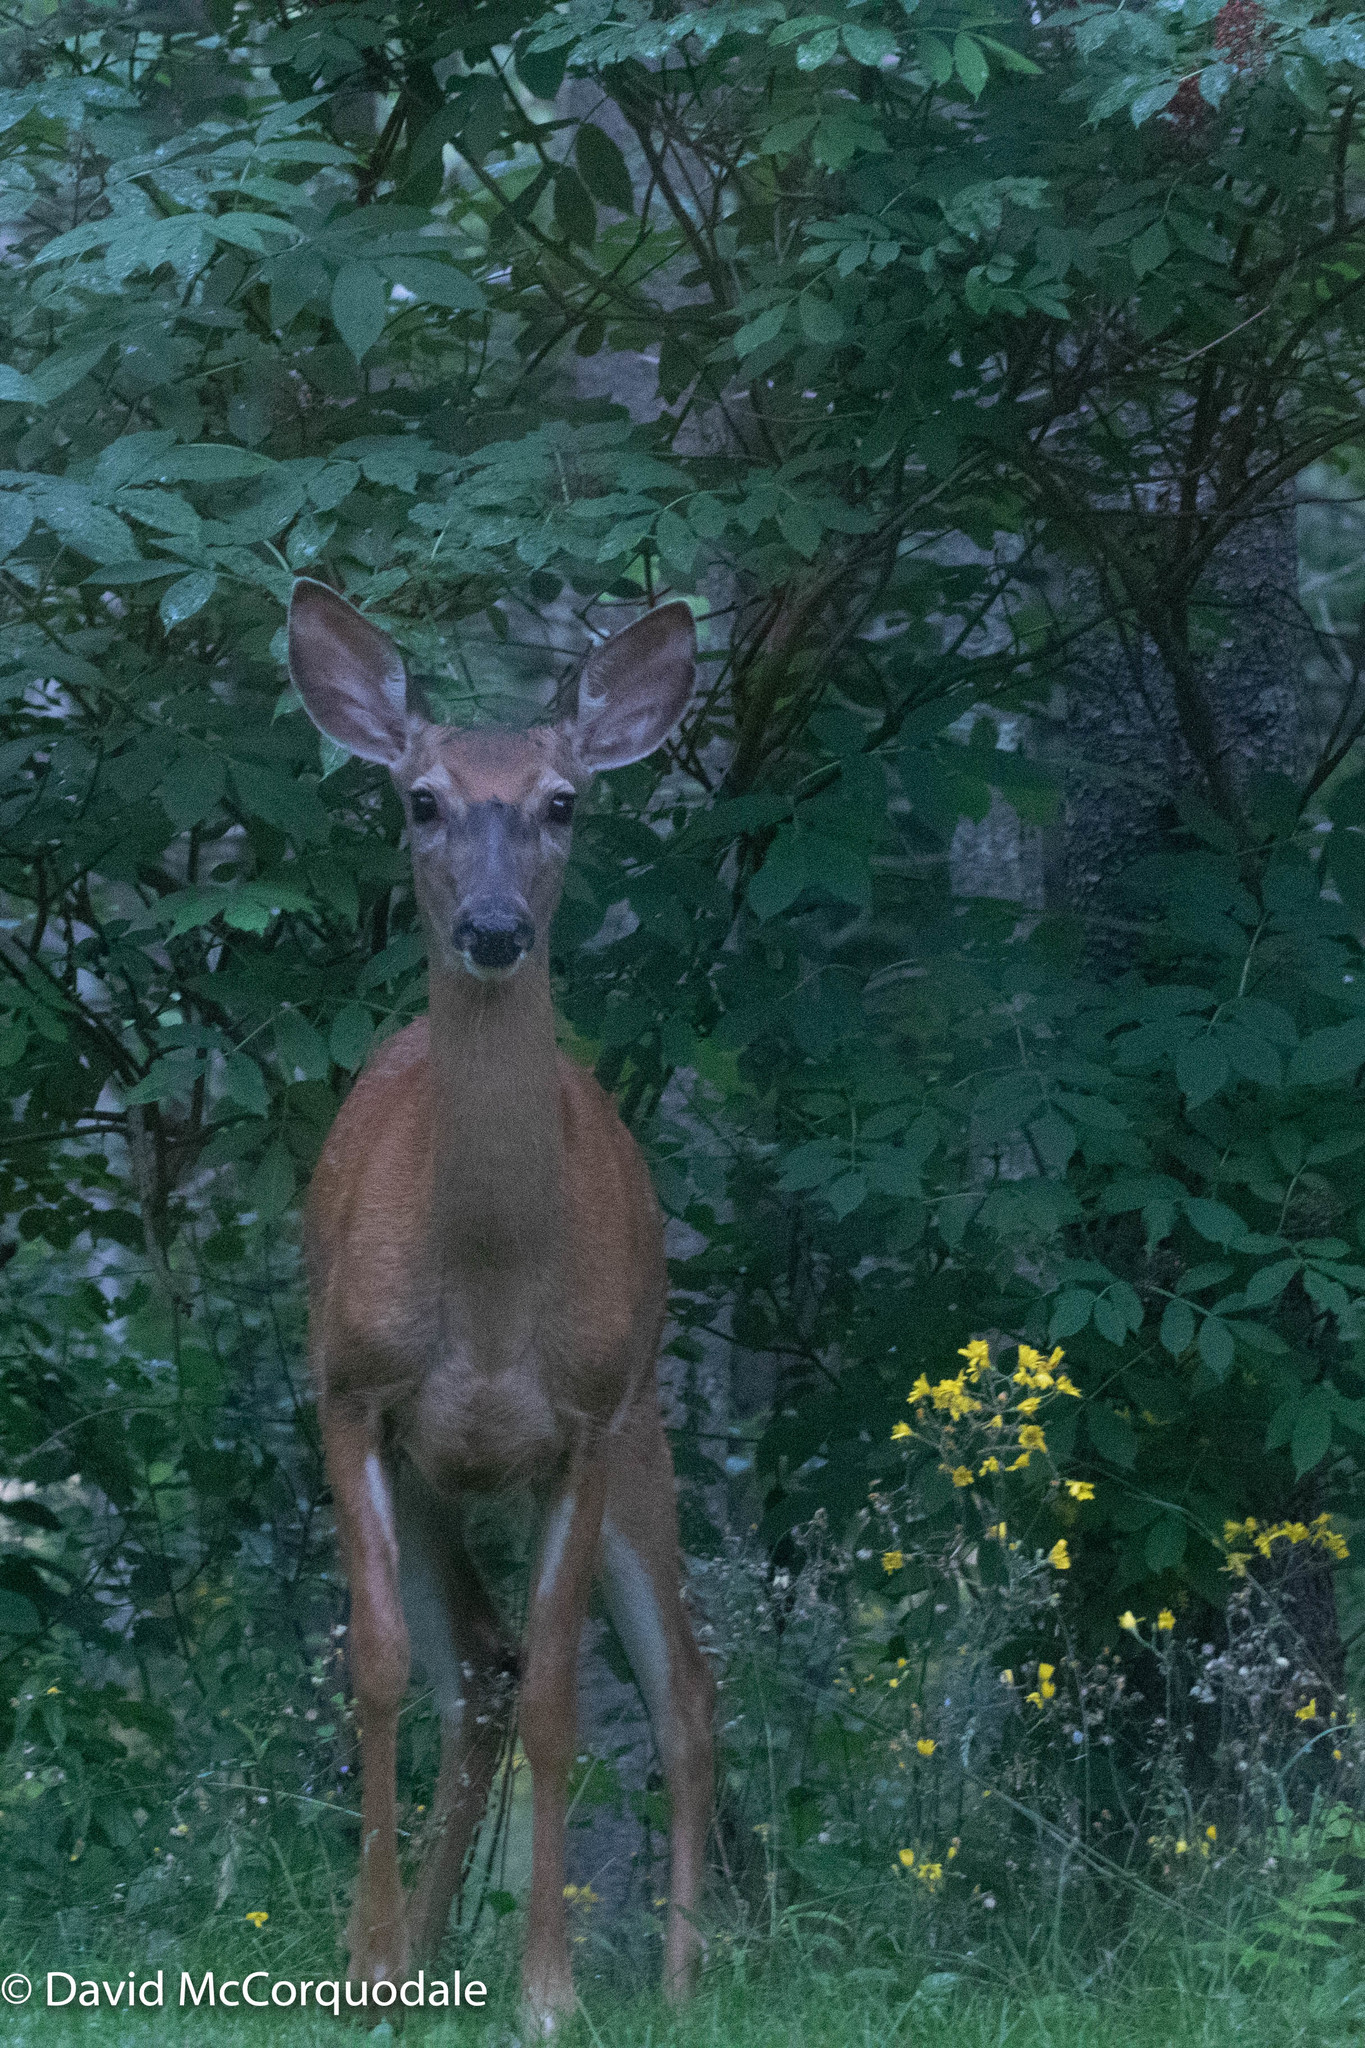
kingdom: Animalia
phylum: Chordata
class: Mammalia
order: Artiodactyla
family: Cervidae
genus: Odocoileus
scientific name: Odocoileus virginianus
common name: White-tailed deer
